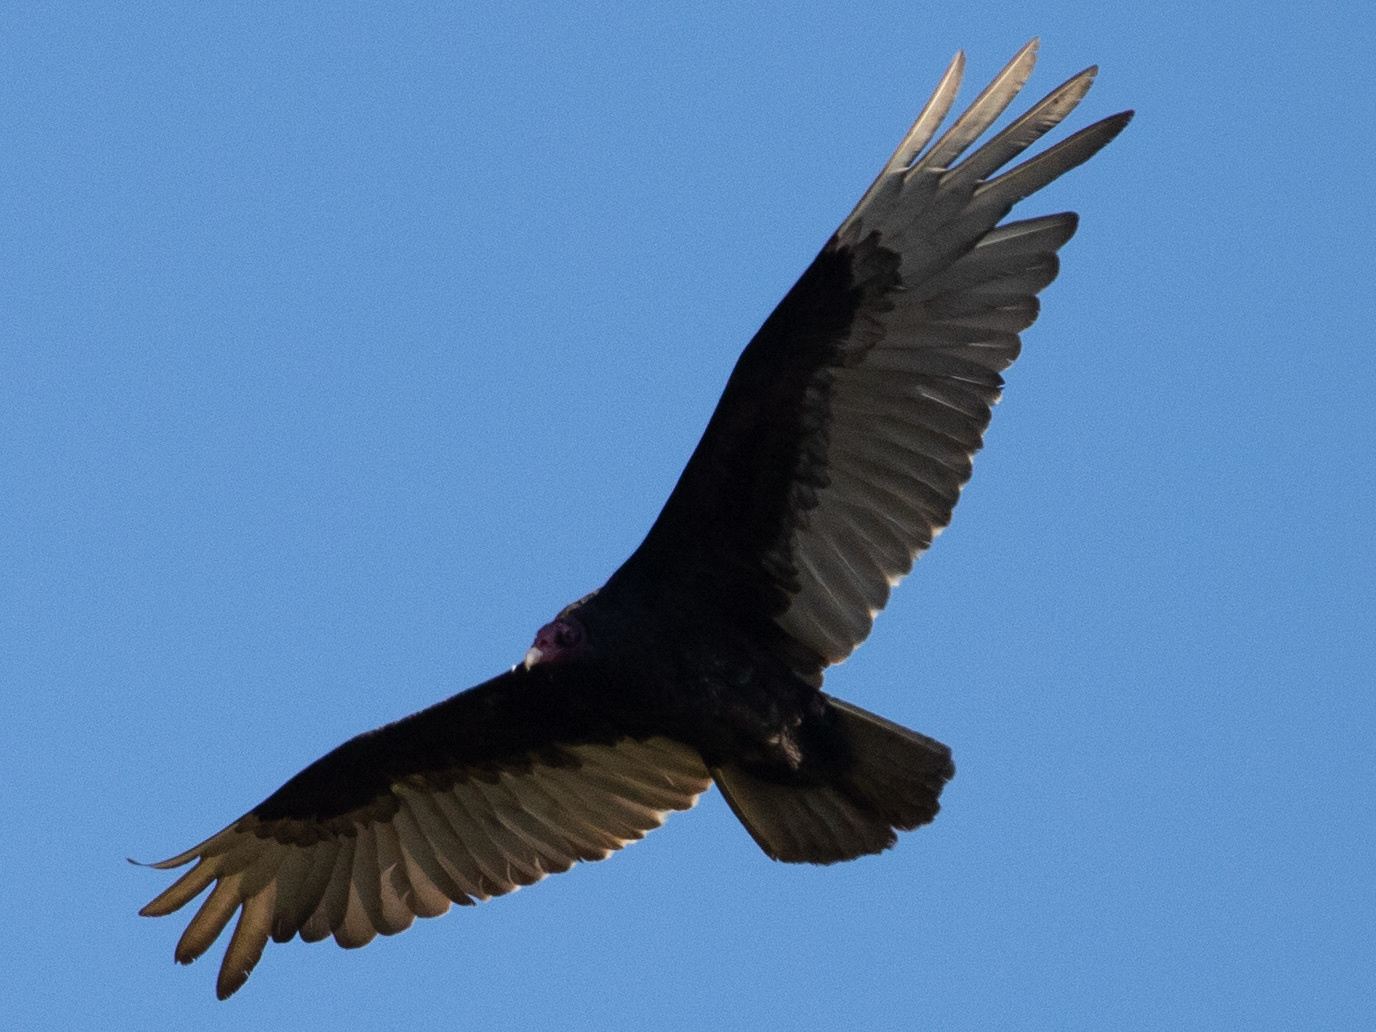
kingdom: Animalia
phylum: Chordata
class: Aves
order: Accipitriformes
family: Cathartidae
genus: Cathartes
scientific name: Cathartes aura
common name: Turkey vulture
